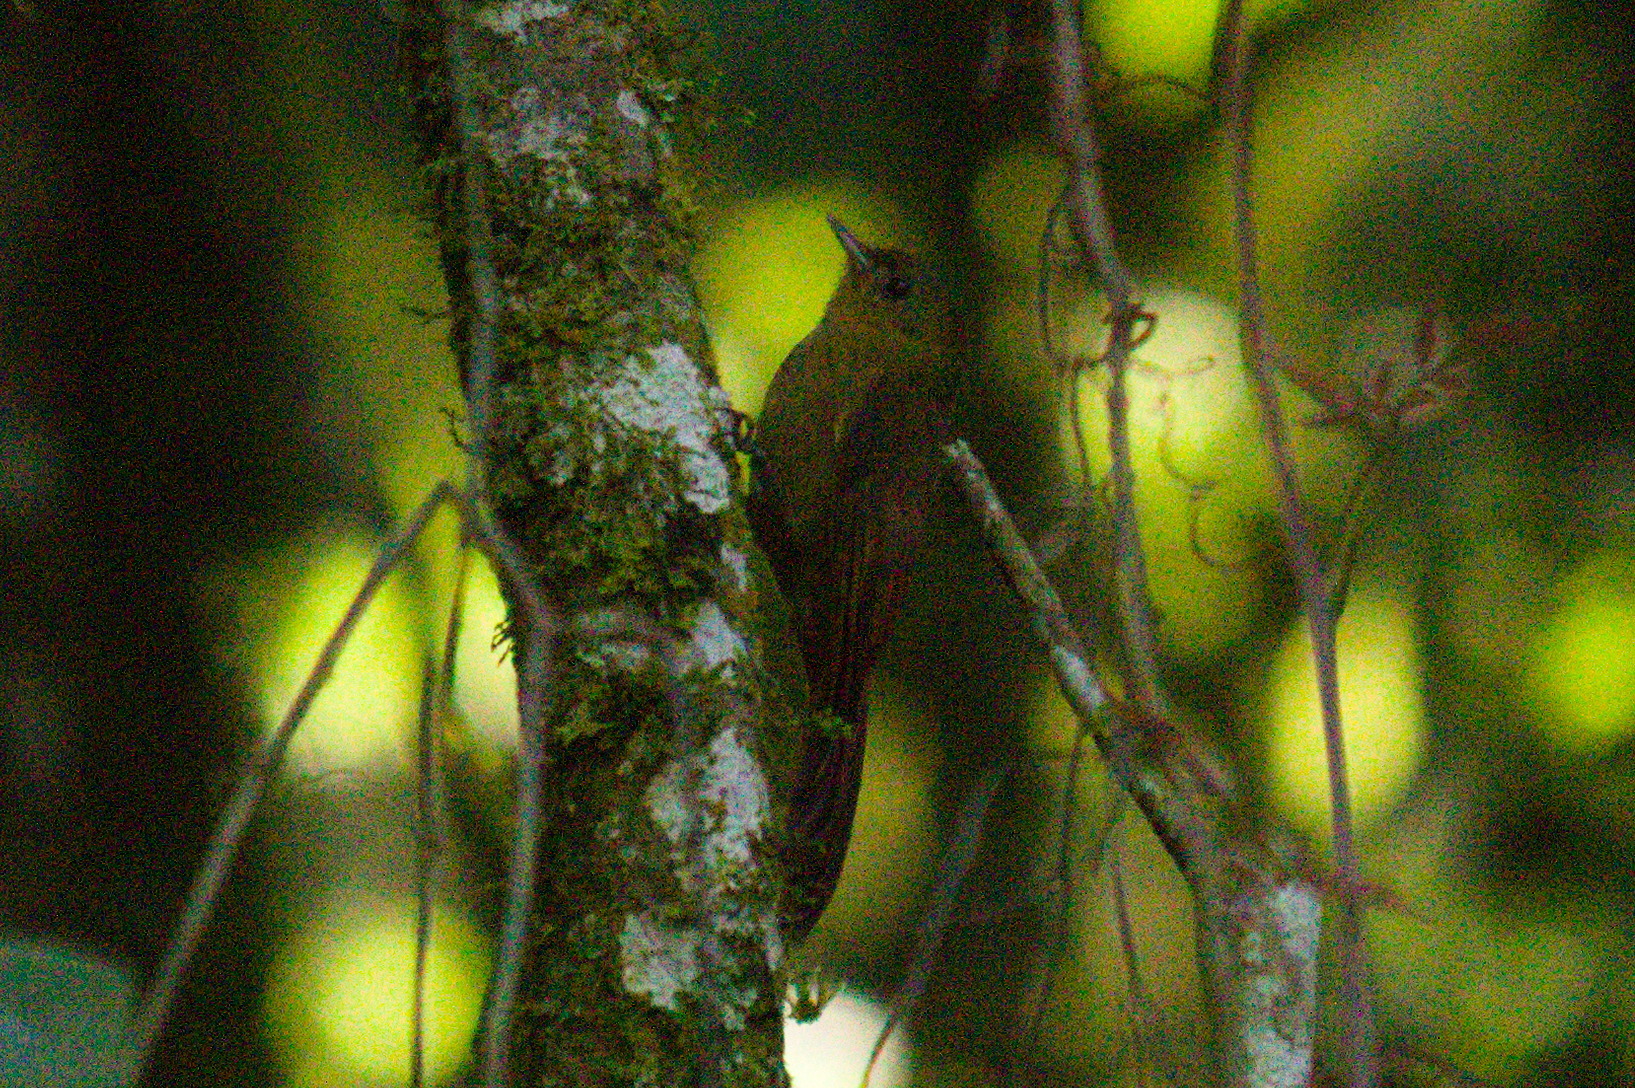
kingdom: Animalia
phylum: Chordata
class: Aves
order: Passeriformes
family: Furnariidae
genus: Sittasomus
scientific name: Sittasomus griseicapillus
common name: Olivaceous woodcreeper
